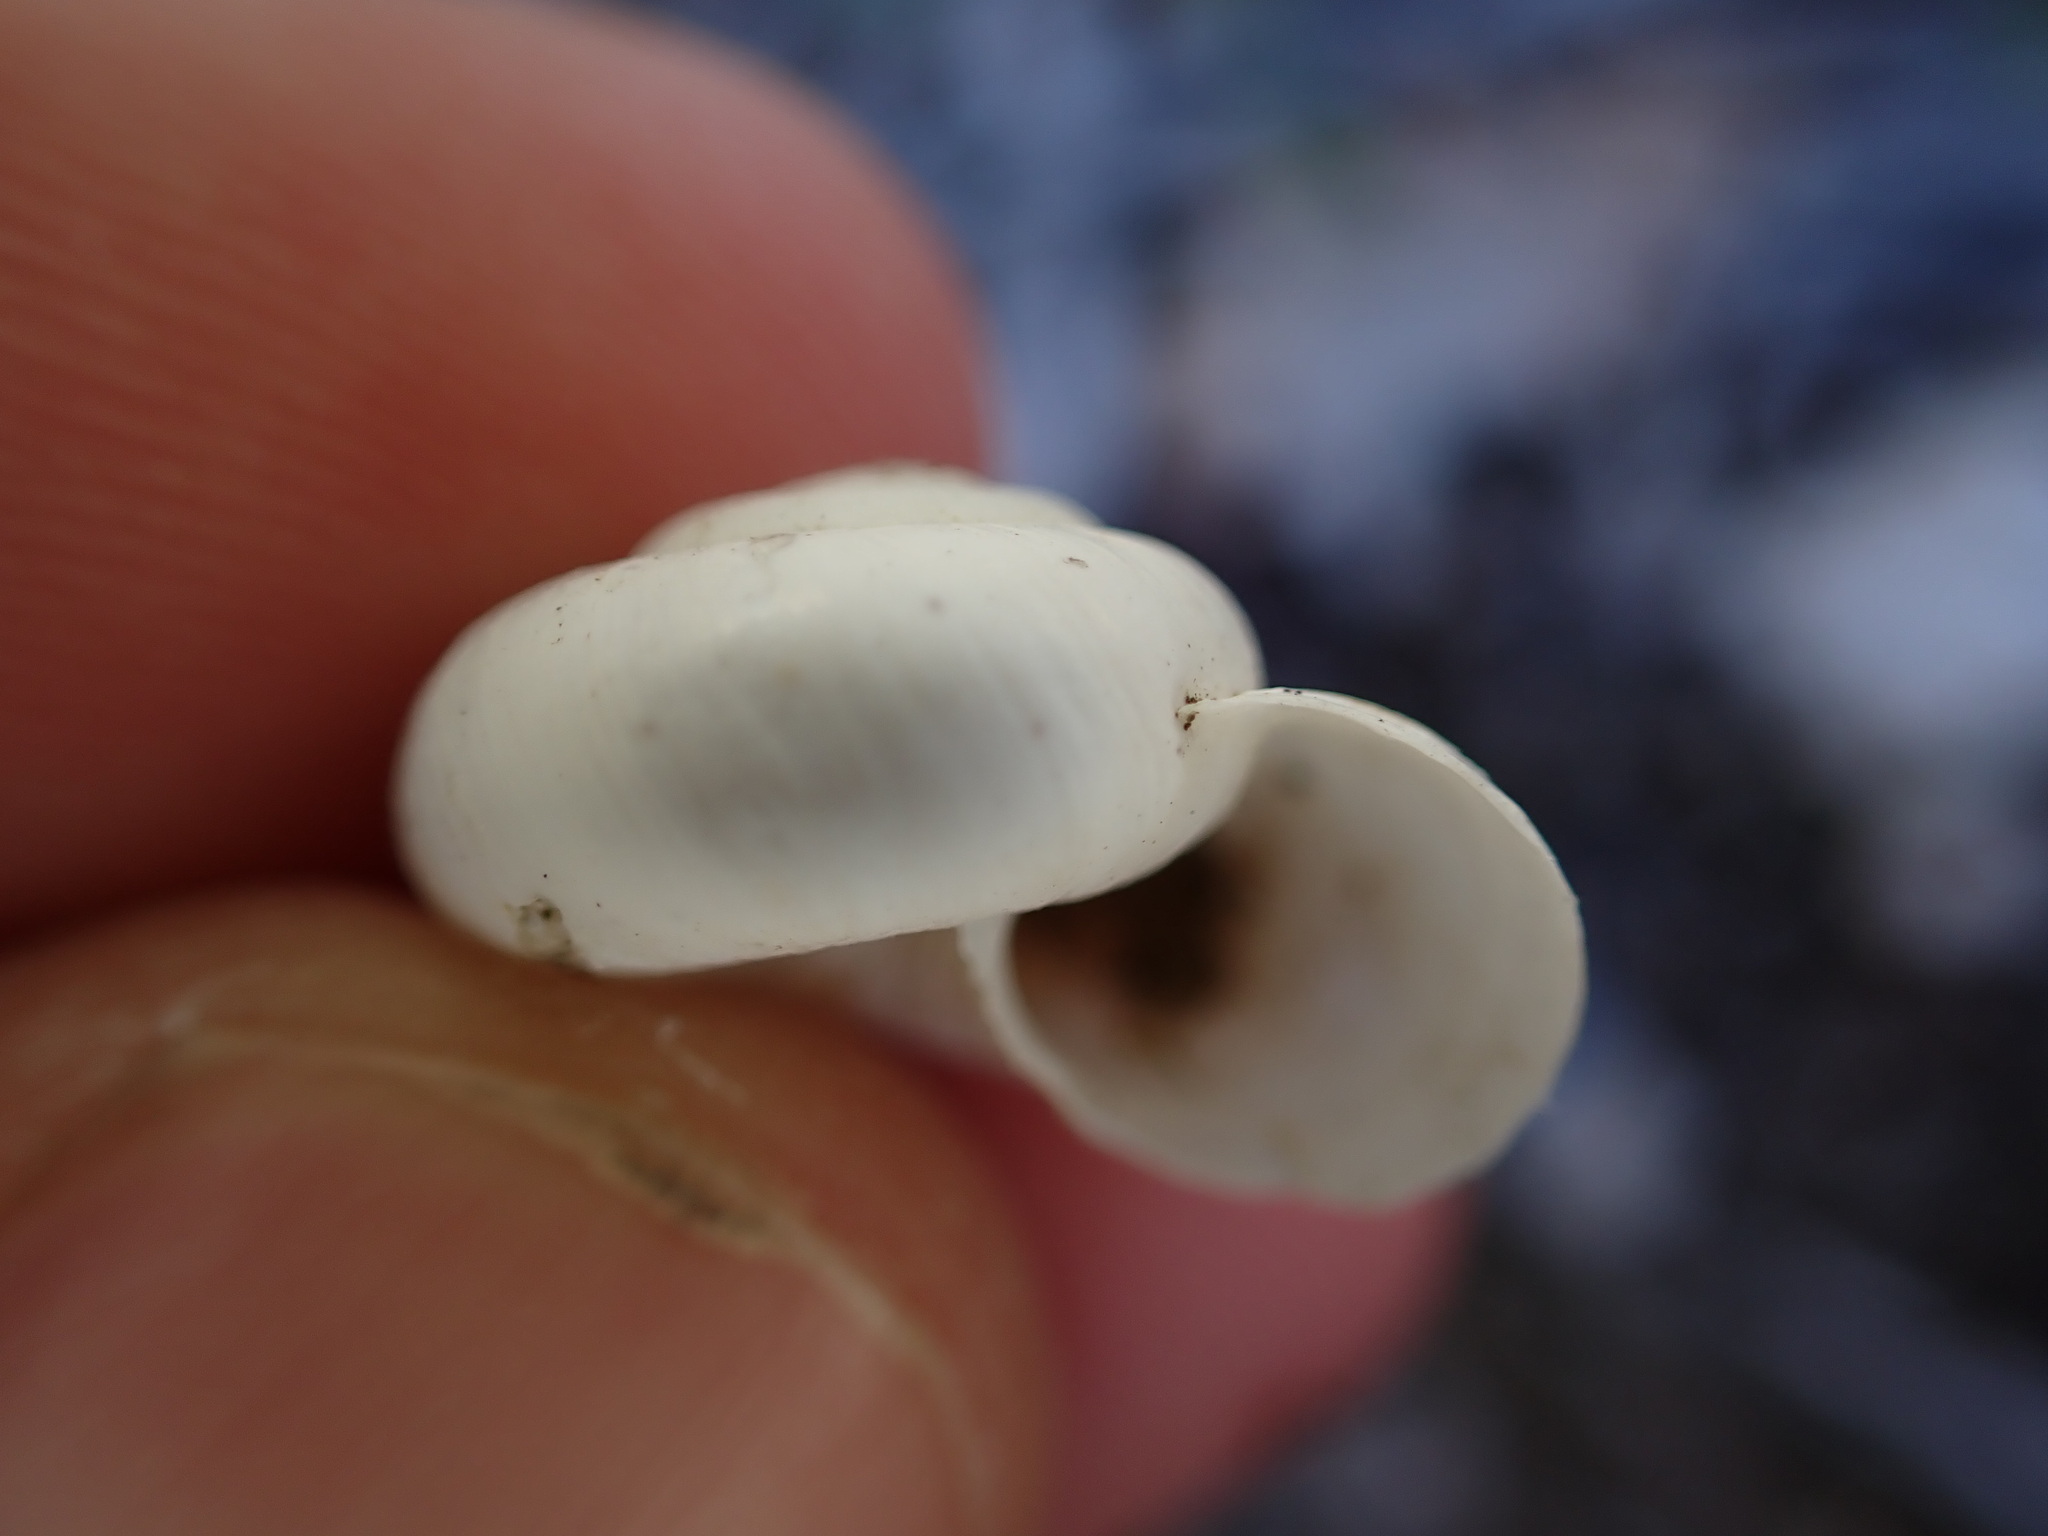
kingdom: Animalia
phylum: Mollusca
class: Gastropoda
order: Stylommatophora
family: Geomitridae
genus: Xeropicta
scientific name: Xeropicta derbentina
